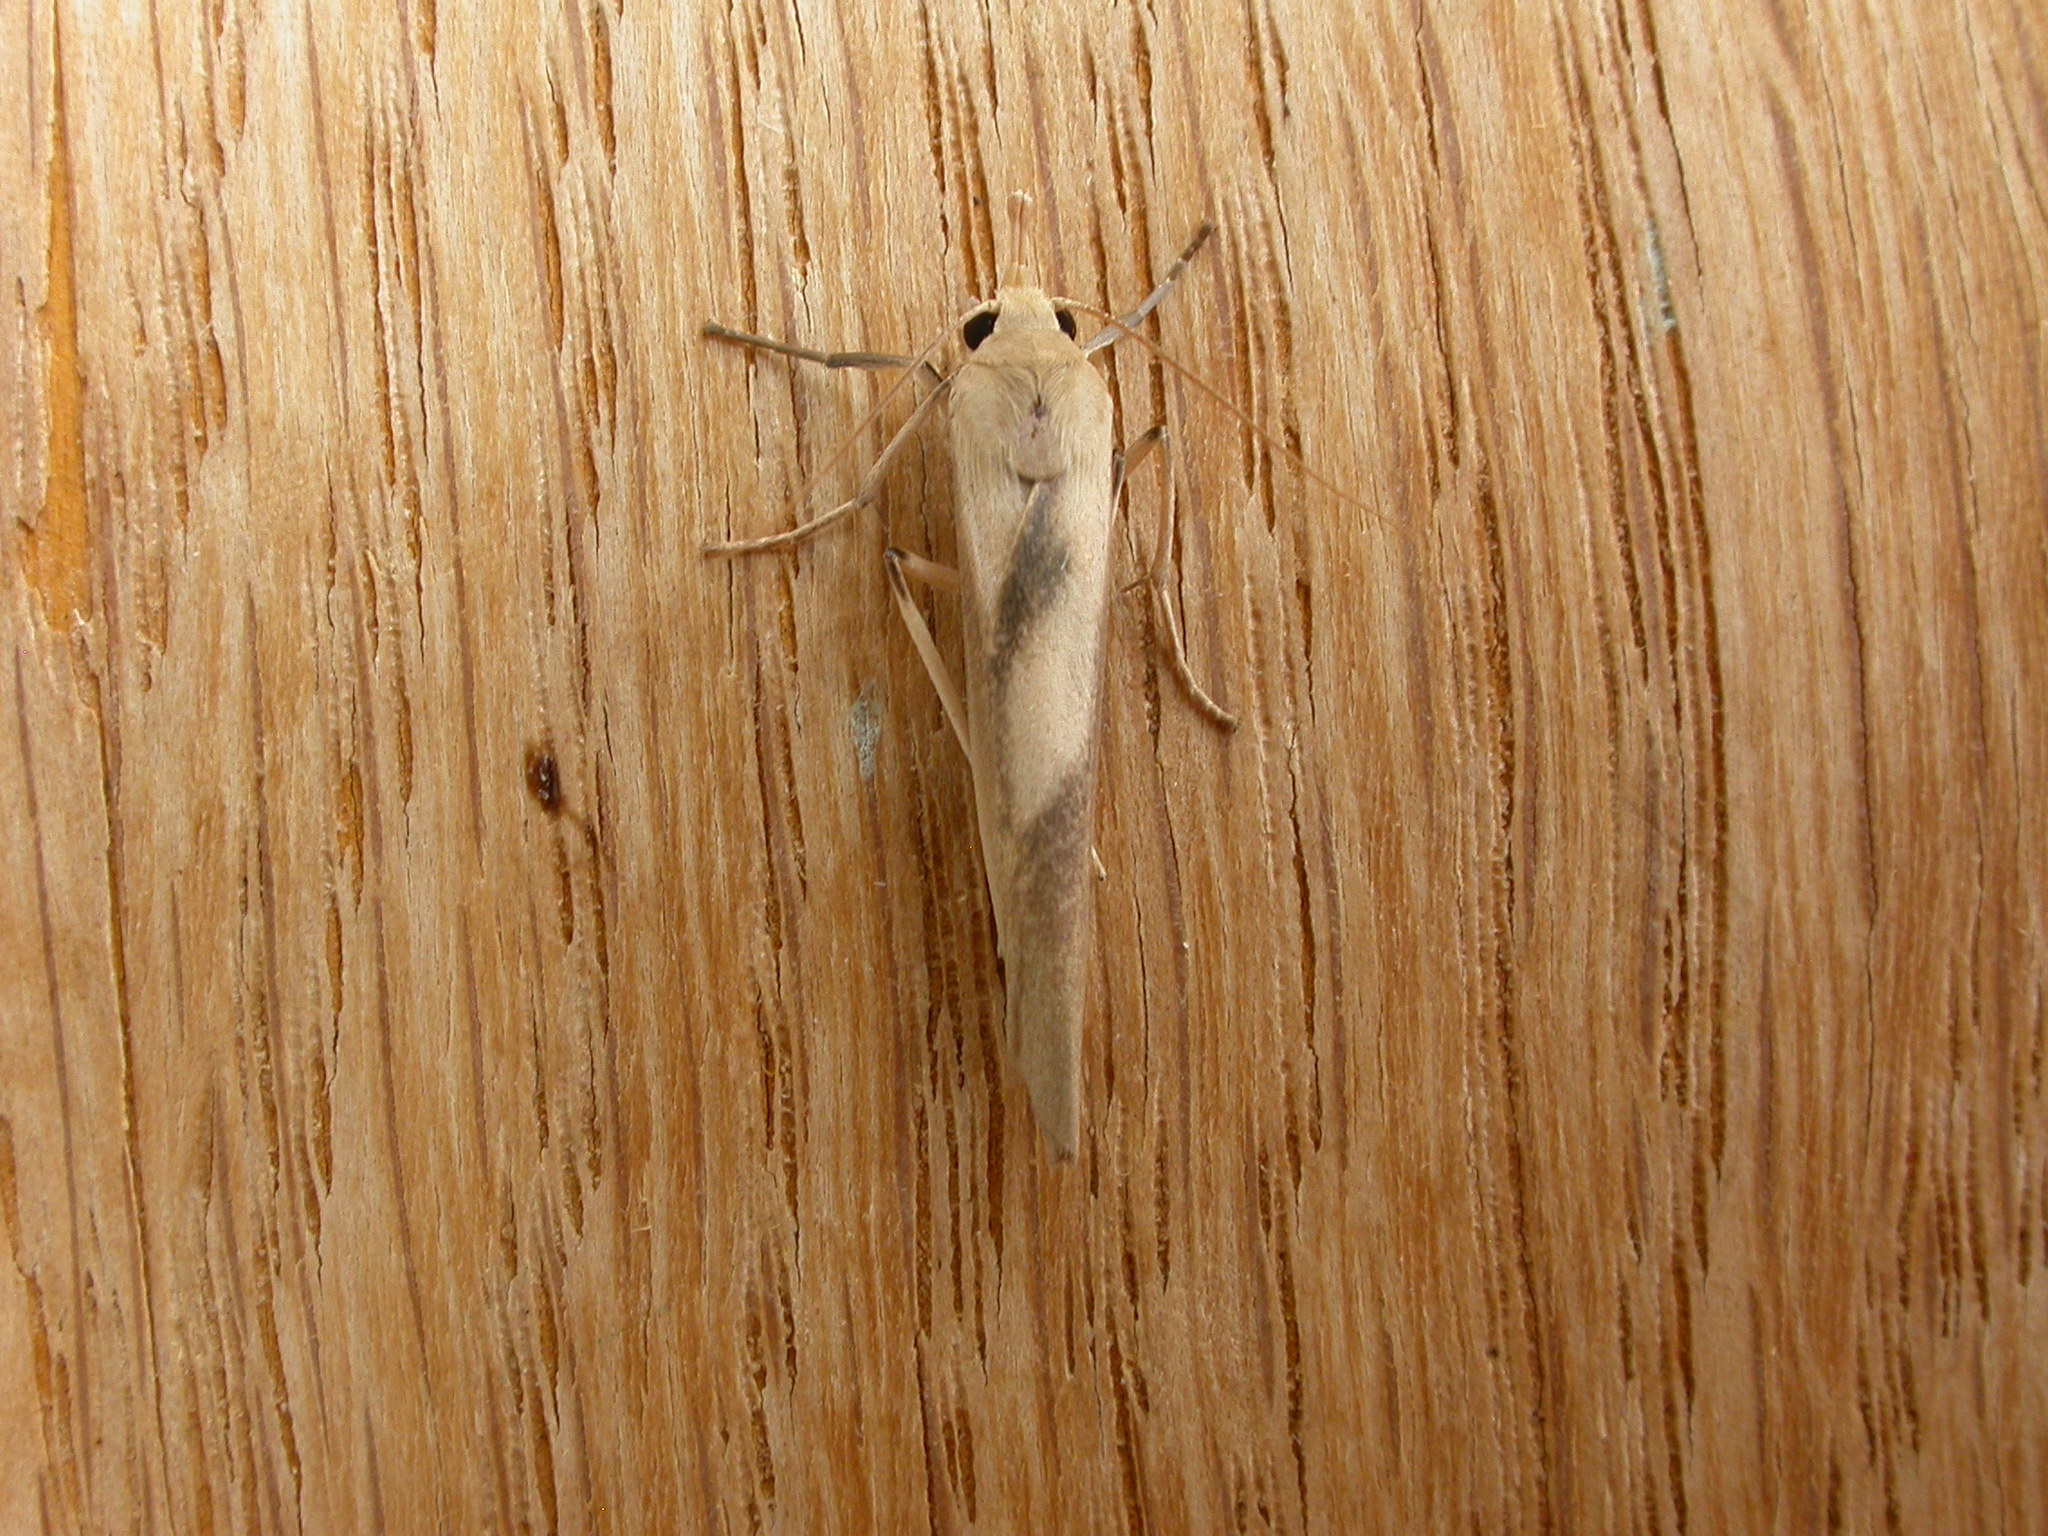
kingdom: Animalia
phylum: Arthropoda
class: Insecta
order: Lepidoptera
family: Erebidae
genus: Calamidia
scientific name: Calamidia hirta
